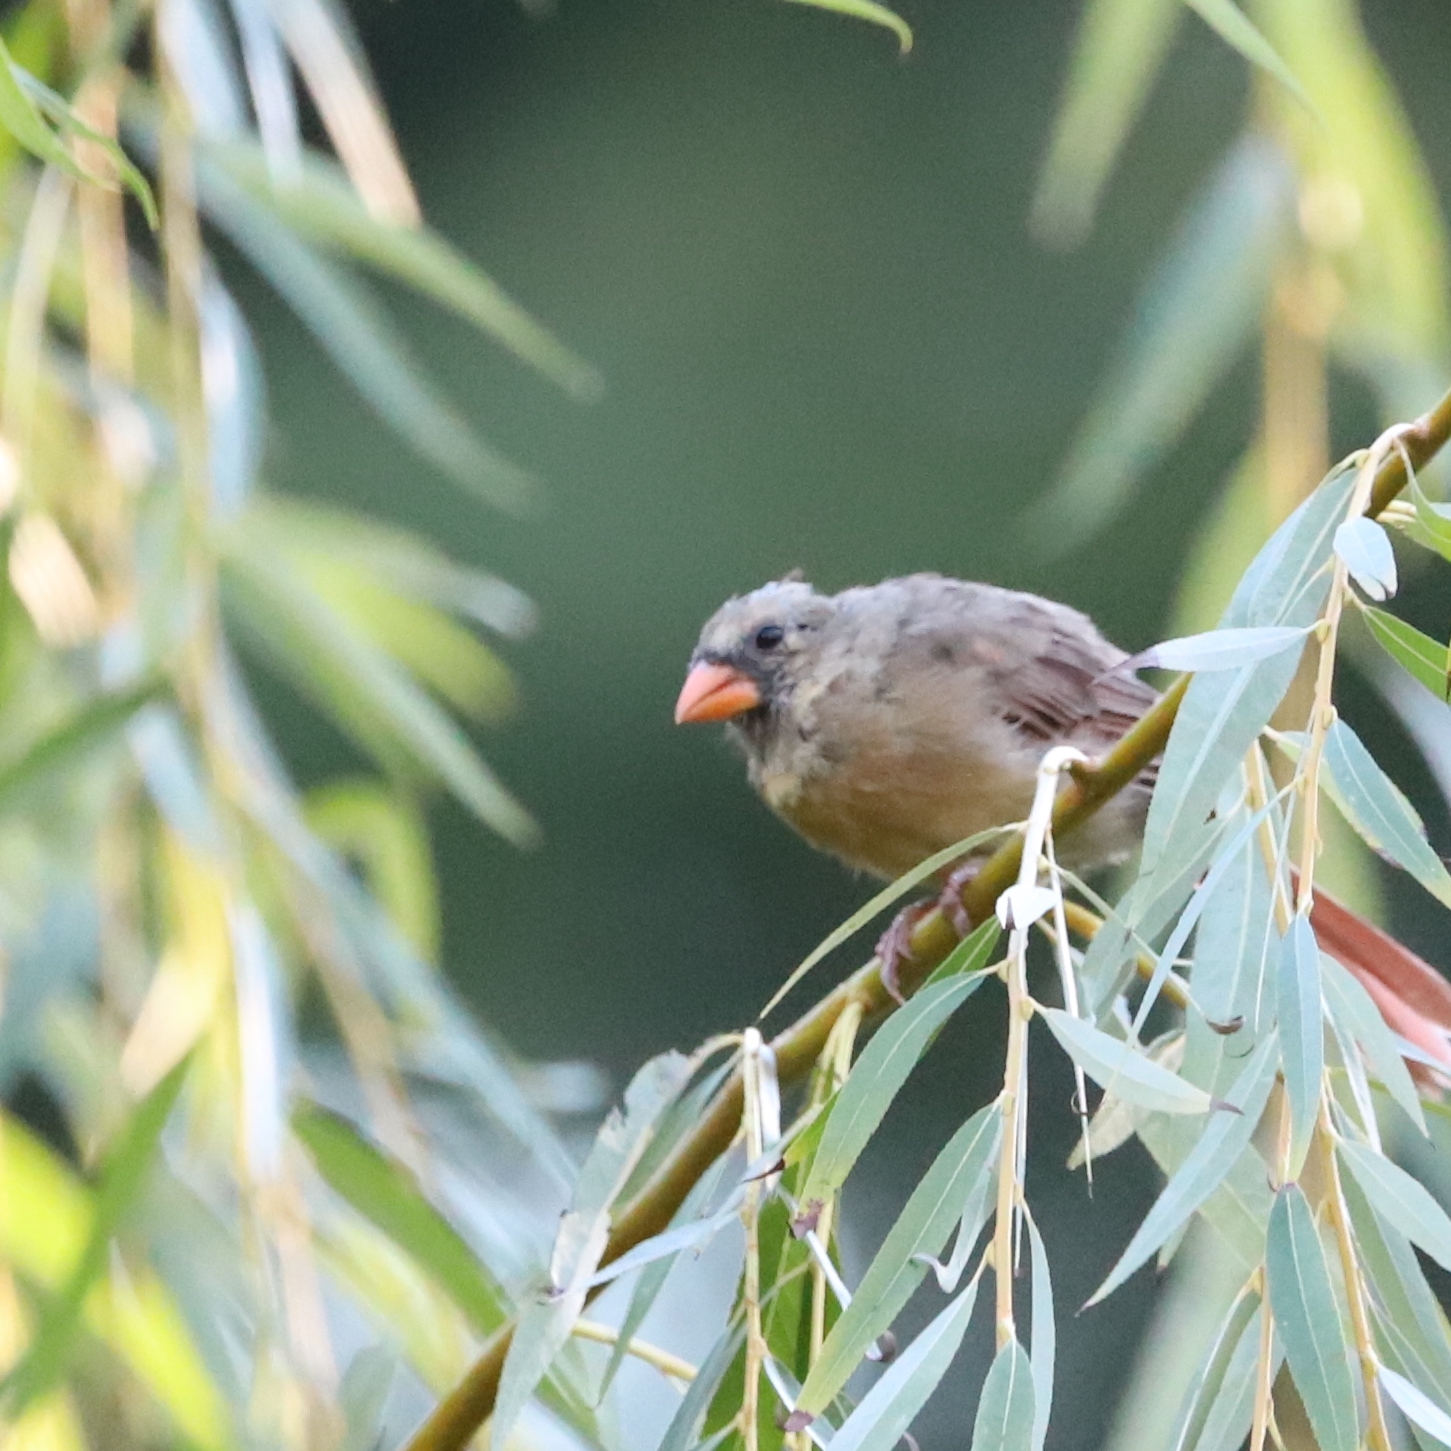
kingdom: Animalia
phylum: Chordata
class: Aves
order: Passeriformes
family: Cardinalidae
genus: Cardinalis
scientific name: Cardinalis cardinalis
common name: Northern cardinal
